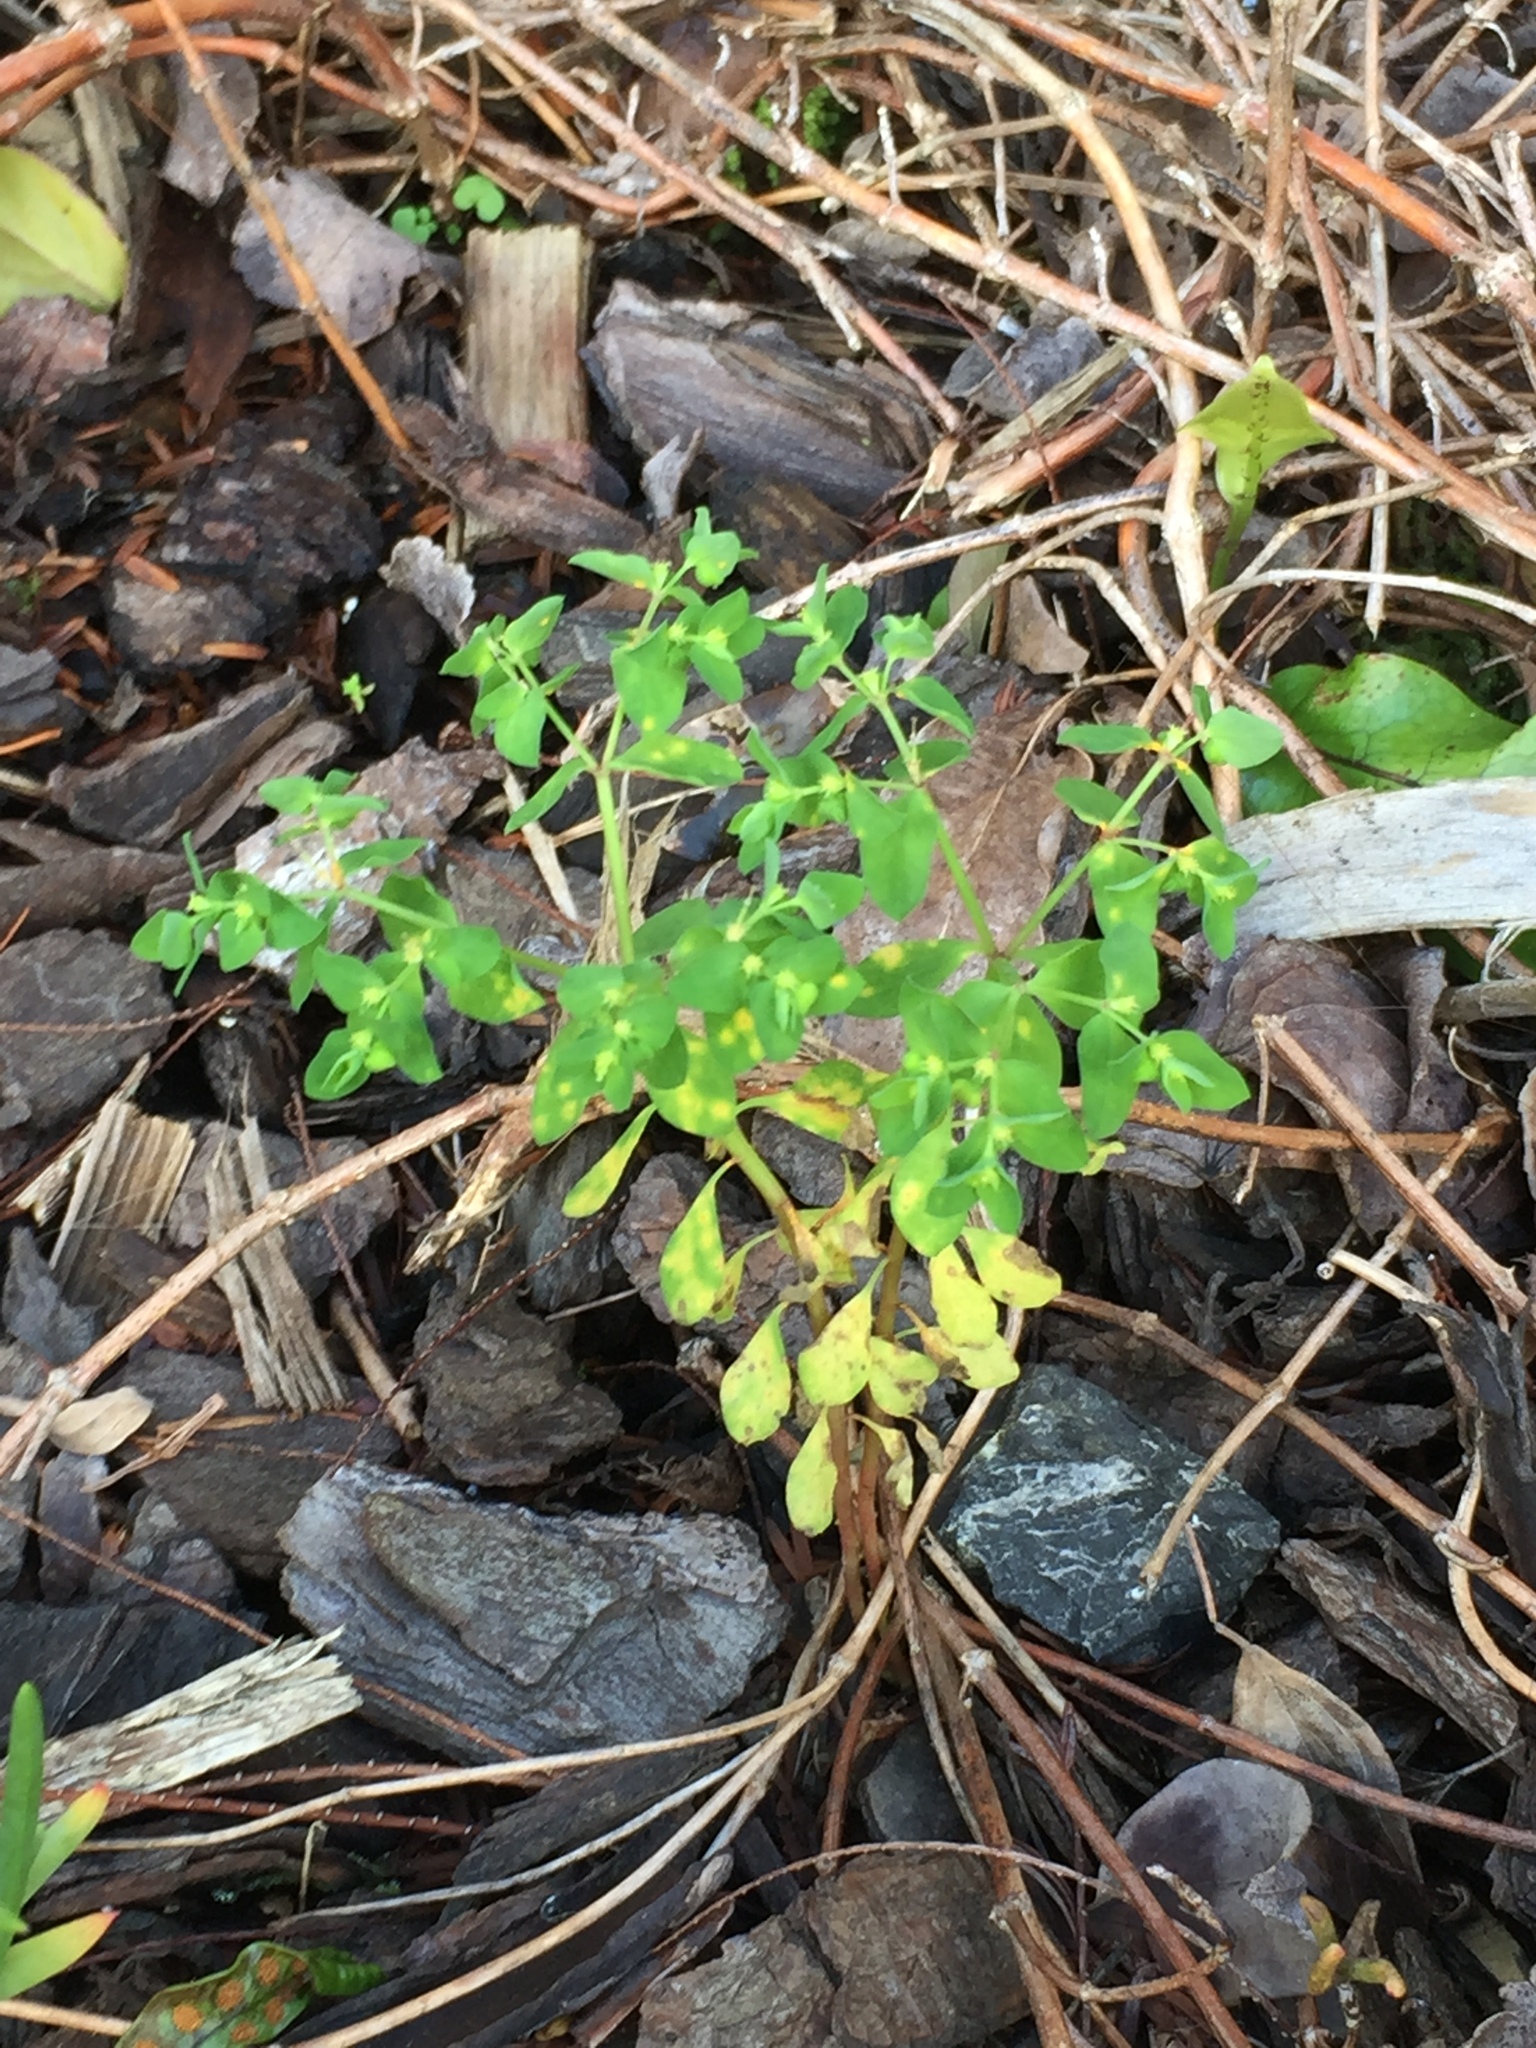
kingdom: Fungi
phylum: Basidiomycota
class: Pucciniomycetes
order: Pucciniales
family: Melampsoraceae
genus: Melampsora
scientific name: Melampsora euphorbiae
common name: Spurge rust
